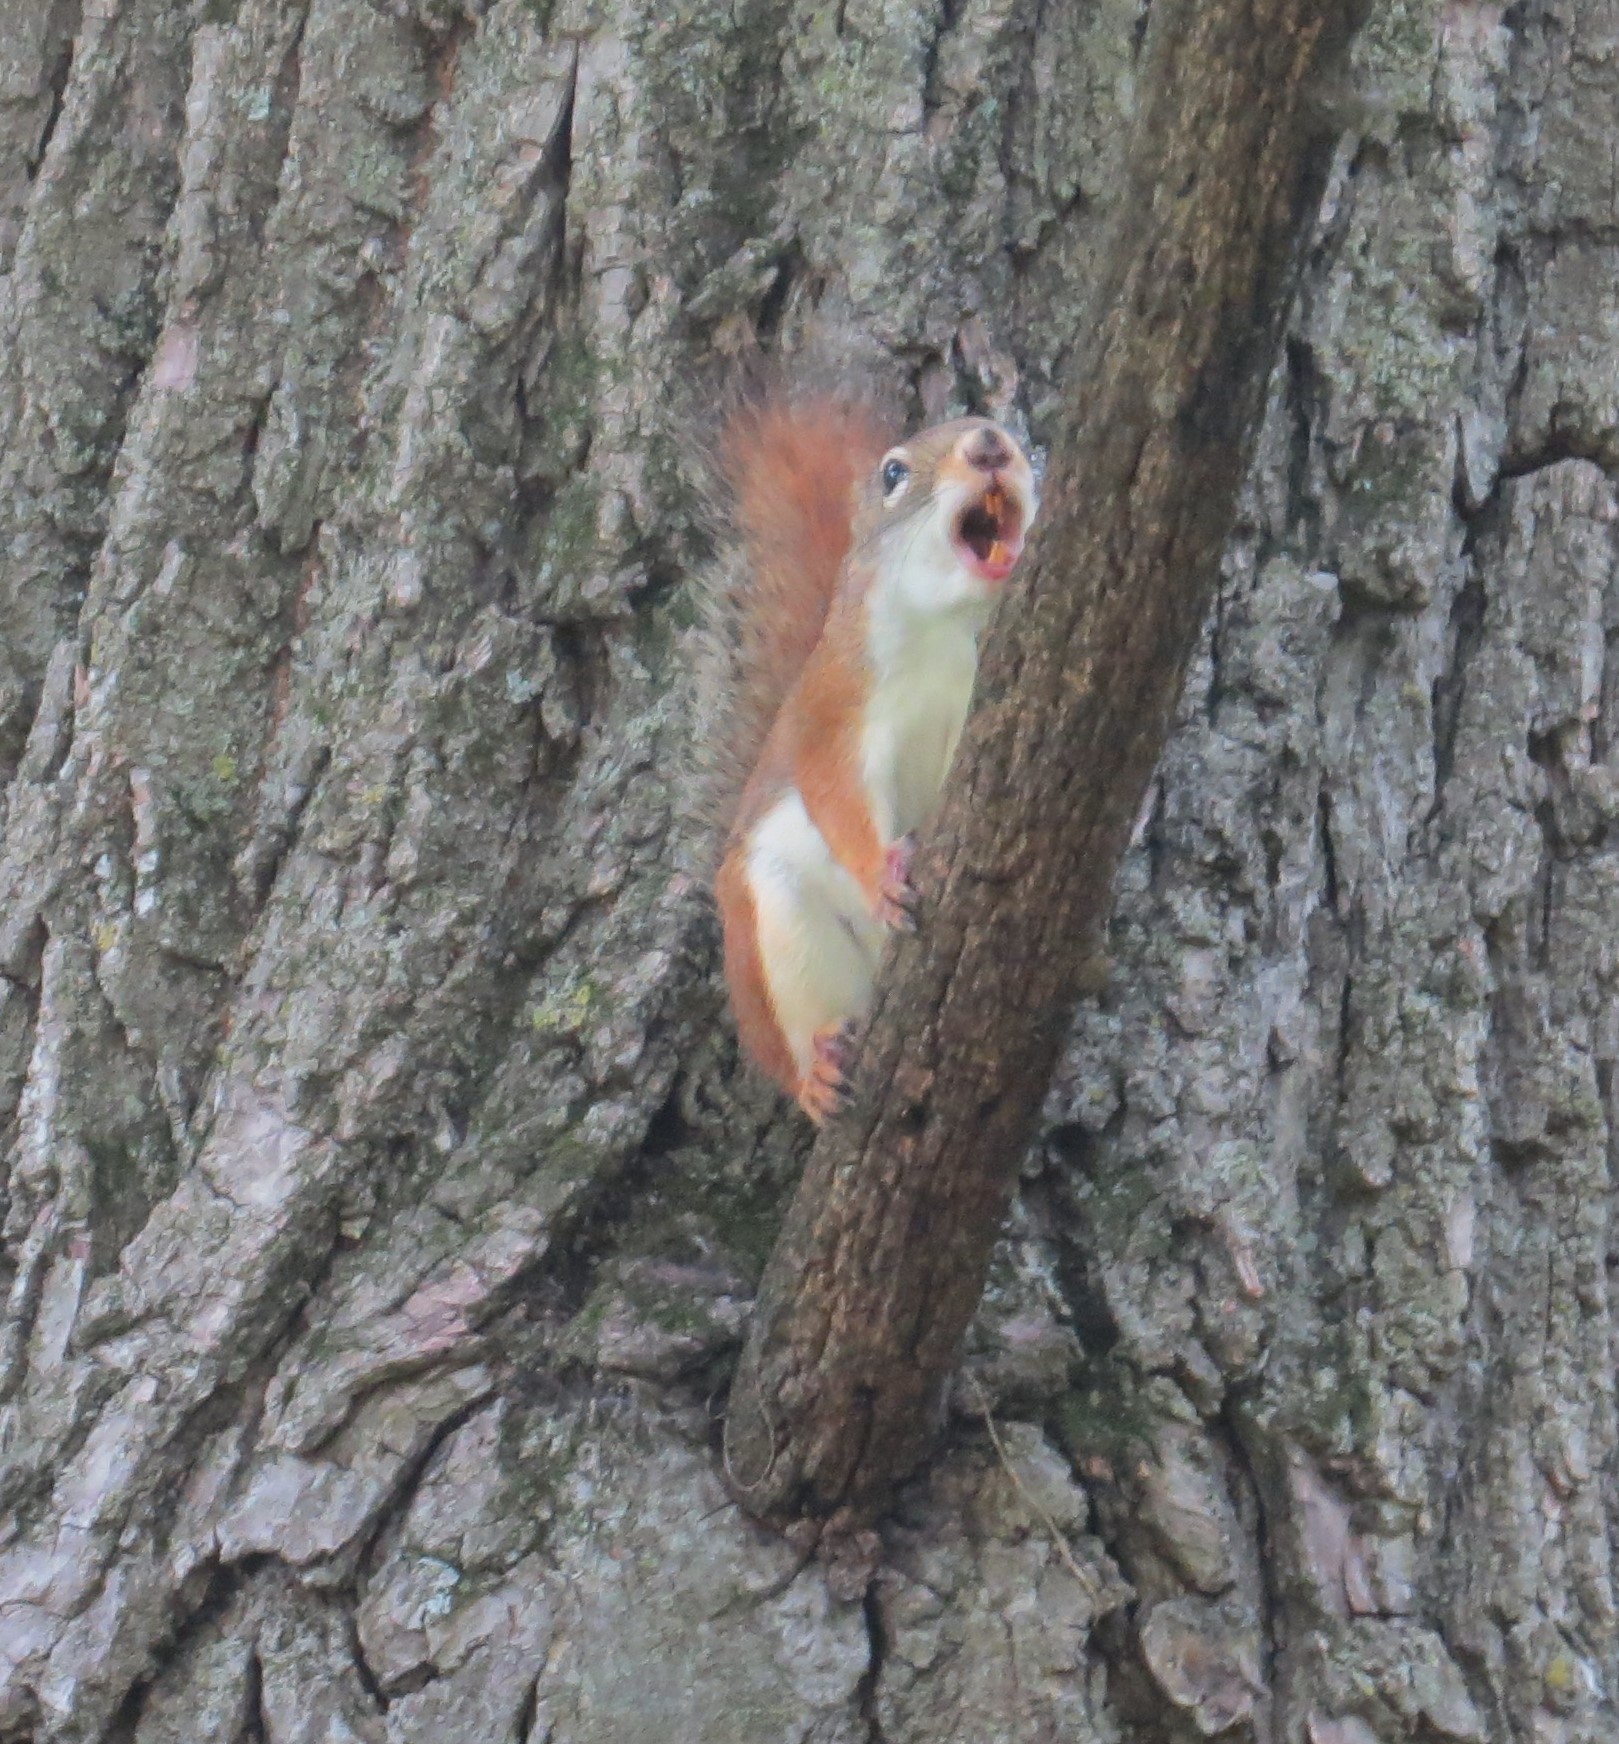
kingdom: Animalia
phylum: Chordata
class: Mammalia
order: Rodentia
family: Sciuridae
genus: Tamiasciurus
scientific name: Tamiasciurus hudsonicus
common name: Red squirrel
